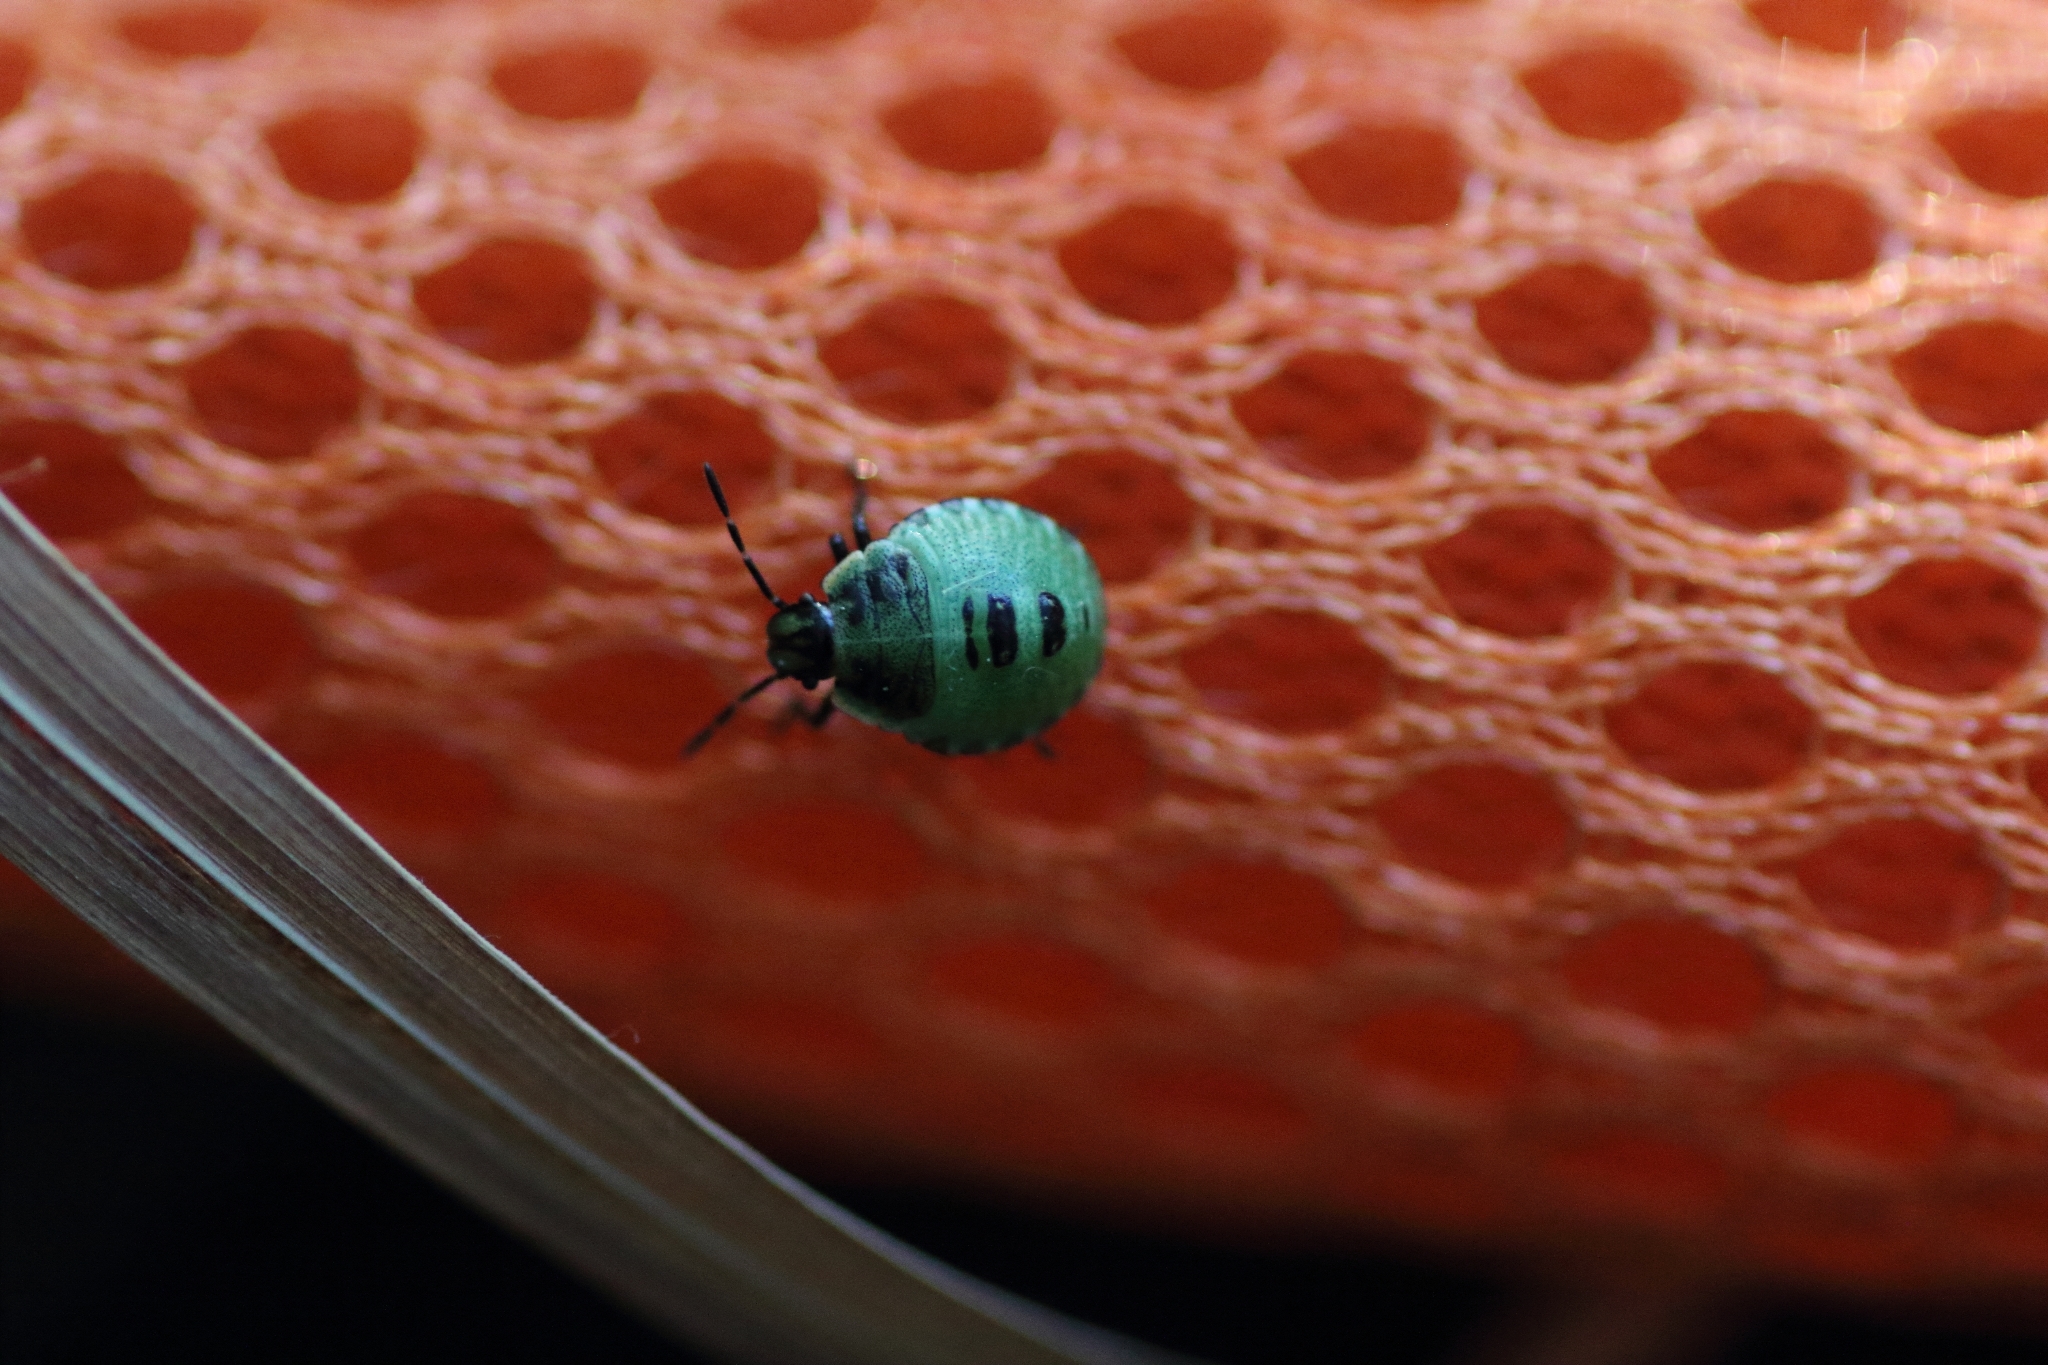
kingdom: Animalia
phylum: Arthropoda
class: Insecta
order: Hemiptera
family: Pentatomidae
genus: Palomena
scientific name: Palomena prasina
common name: Green shieldbug
